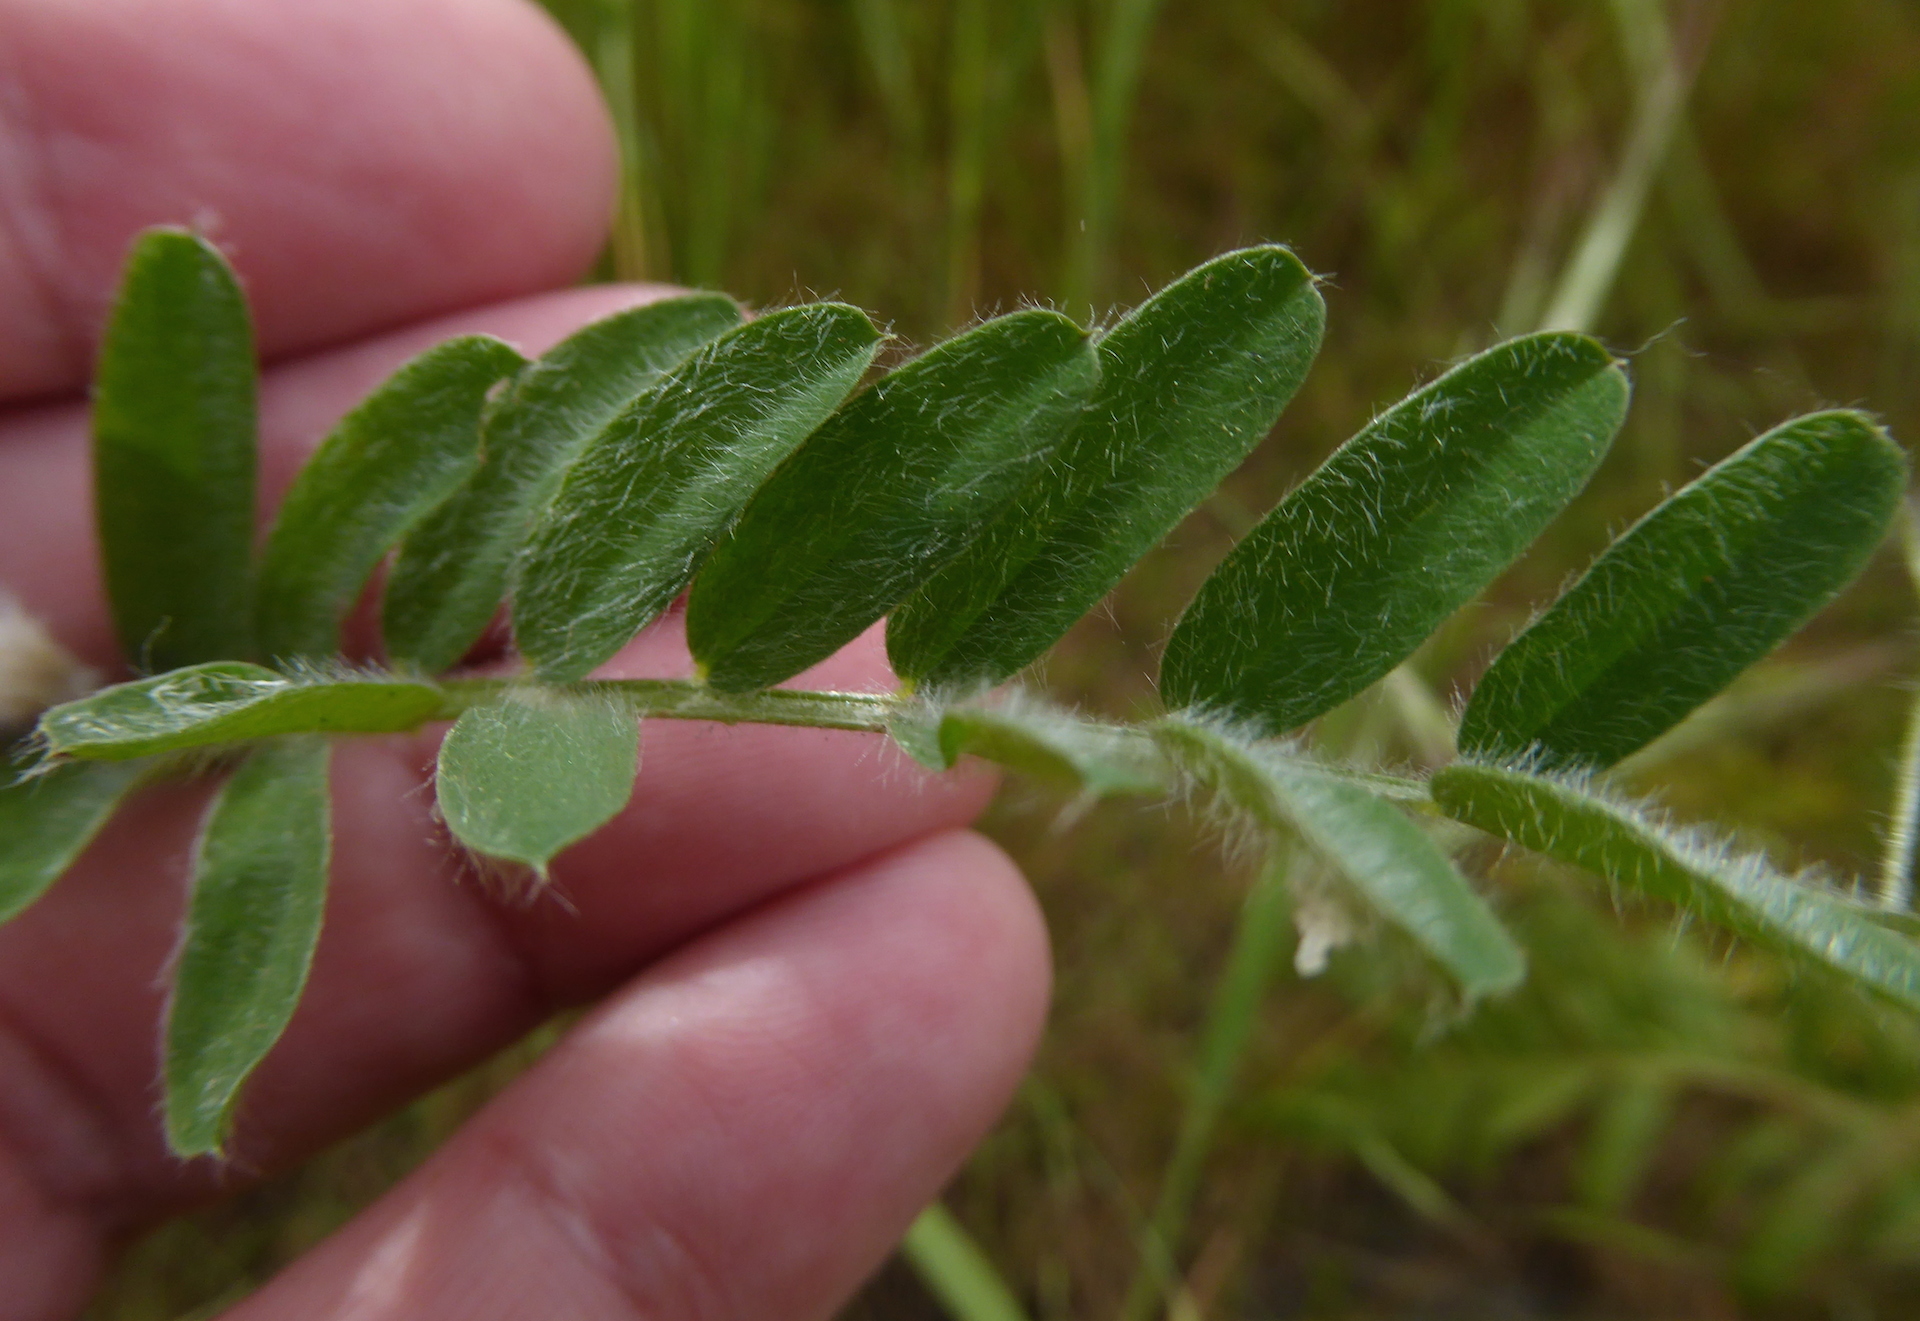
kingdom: Plantae
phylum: Tracheophyta
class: Magnoliopsida
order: Fabales
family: Fabaceae
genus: Vicia
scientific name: Vicia benghalensis
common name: Purple vetch
